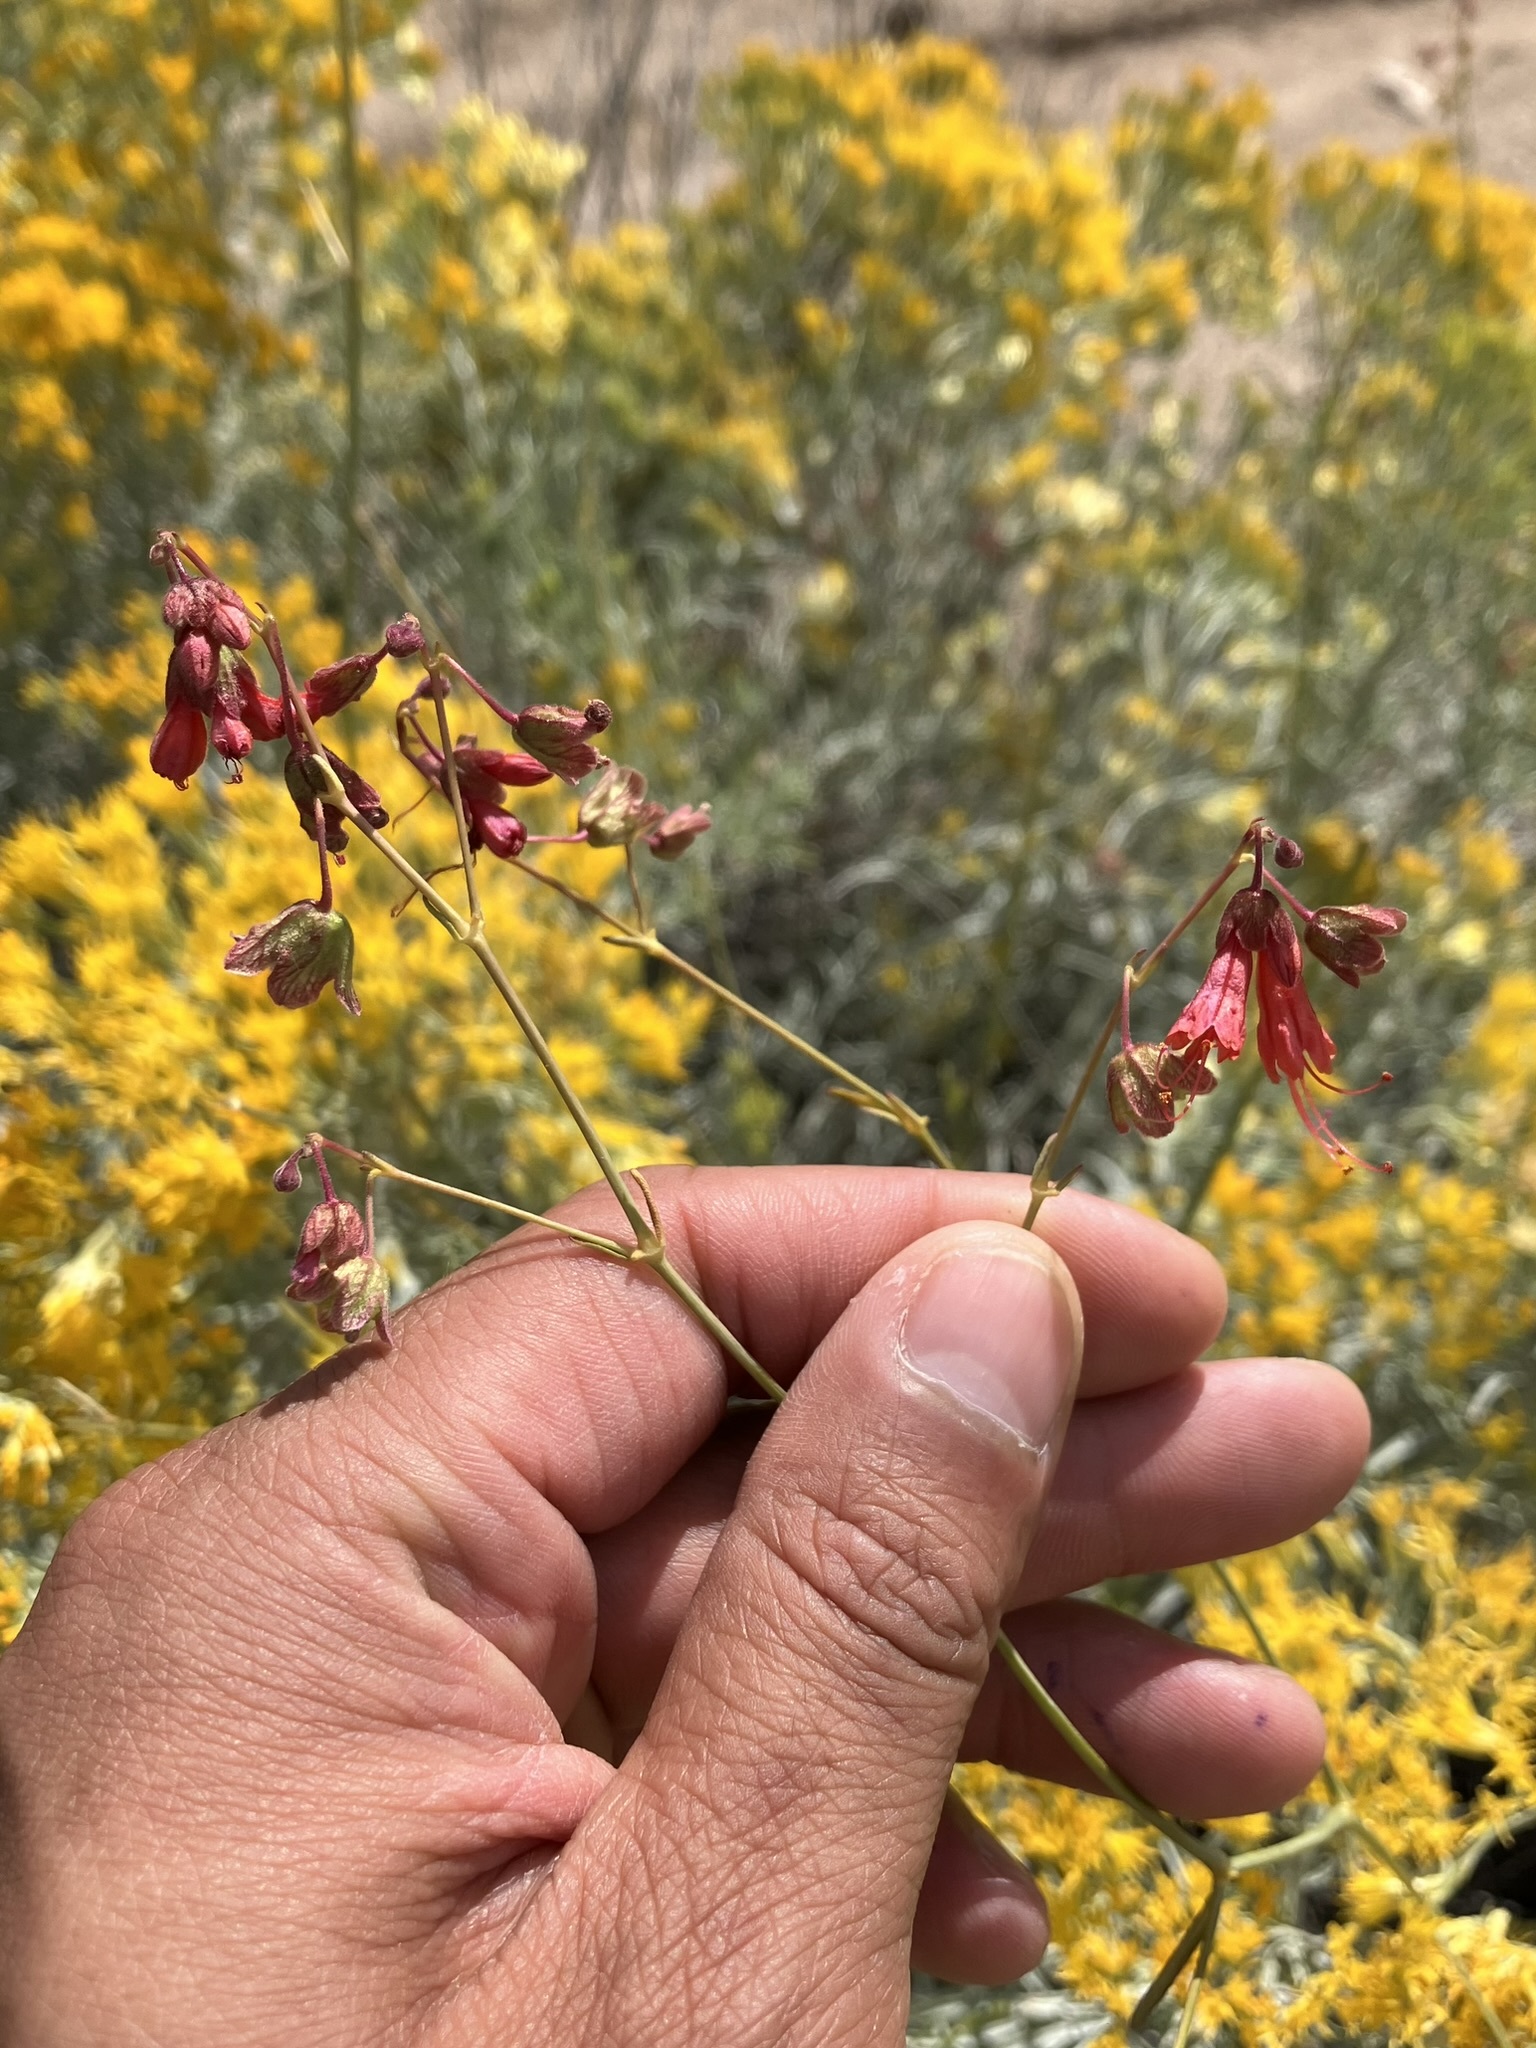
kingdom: Plantae
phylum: Tracheophyta
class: Magnoliopsida
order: Caryophyllales
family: Nyctaginaceae
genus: Mirabilis
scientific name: Mirabilis coccinea
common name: Scarlet four-o'clock
